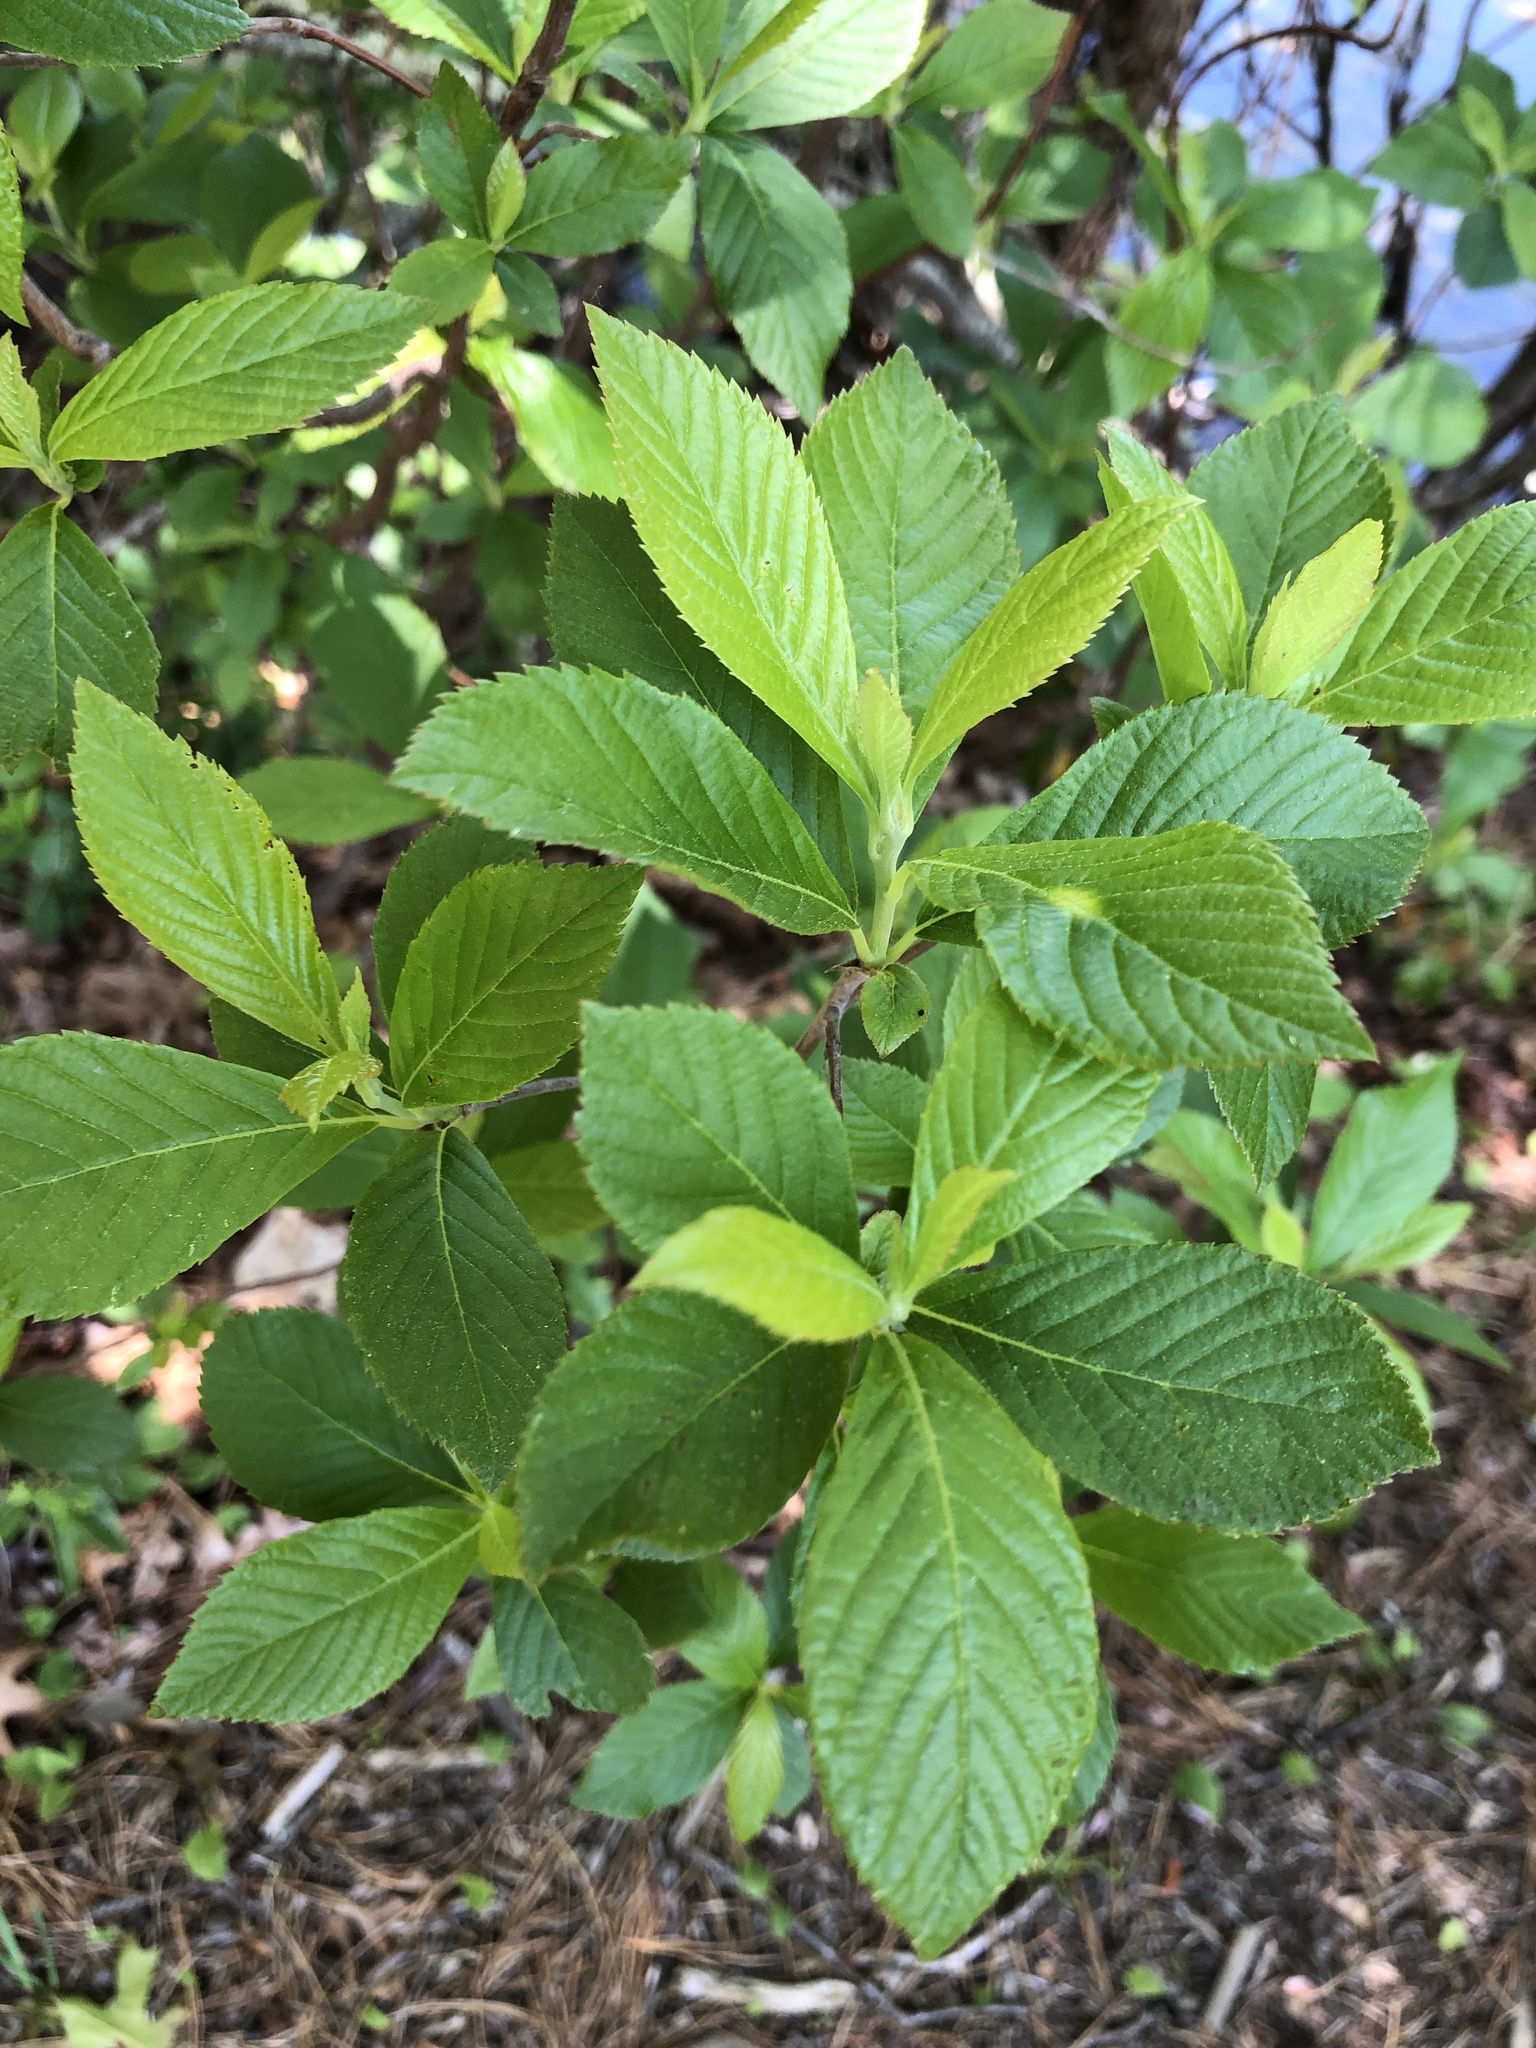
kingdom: Plantae
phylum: Tracheophyta
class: Magnoliopsida
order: Ericales
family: Clethraceae
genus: Clethra
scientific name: Clethra alnifolia
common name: Sweet pepperbush
